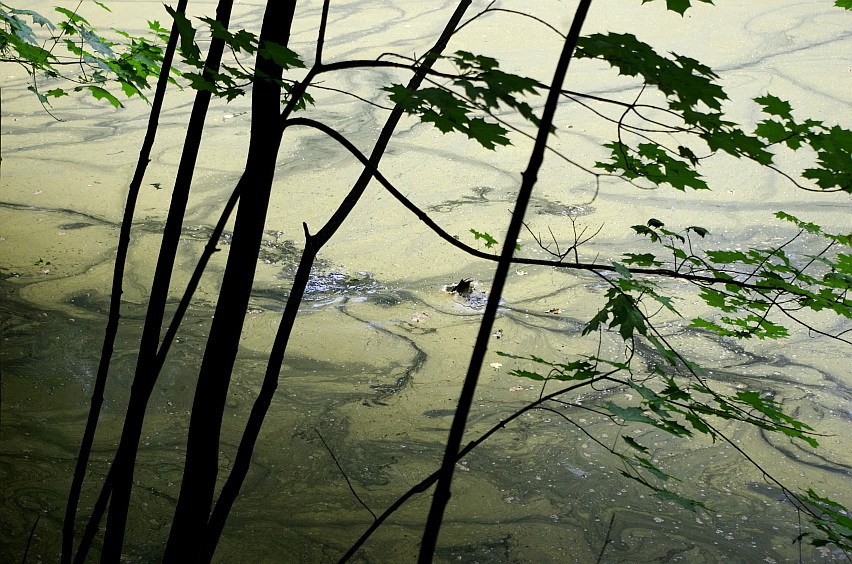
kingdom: Plantae
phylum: Tracheophyta
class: Magnoliopsida
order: Sapindales
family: Sapindaceae
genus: Acer
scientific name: Acer platanoides
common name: Norway maple
